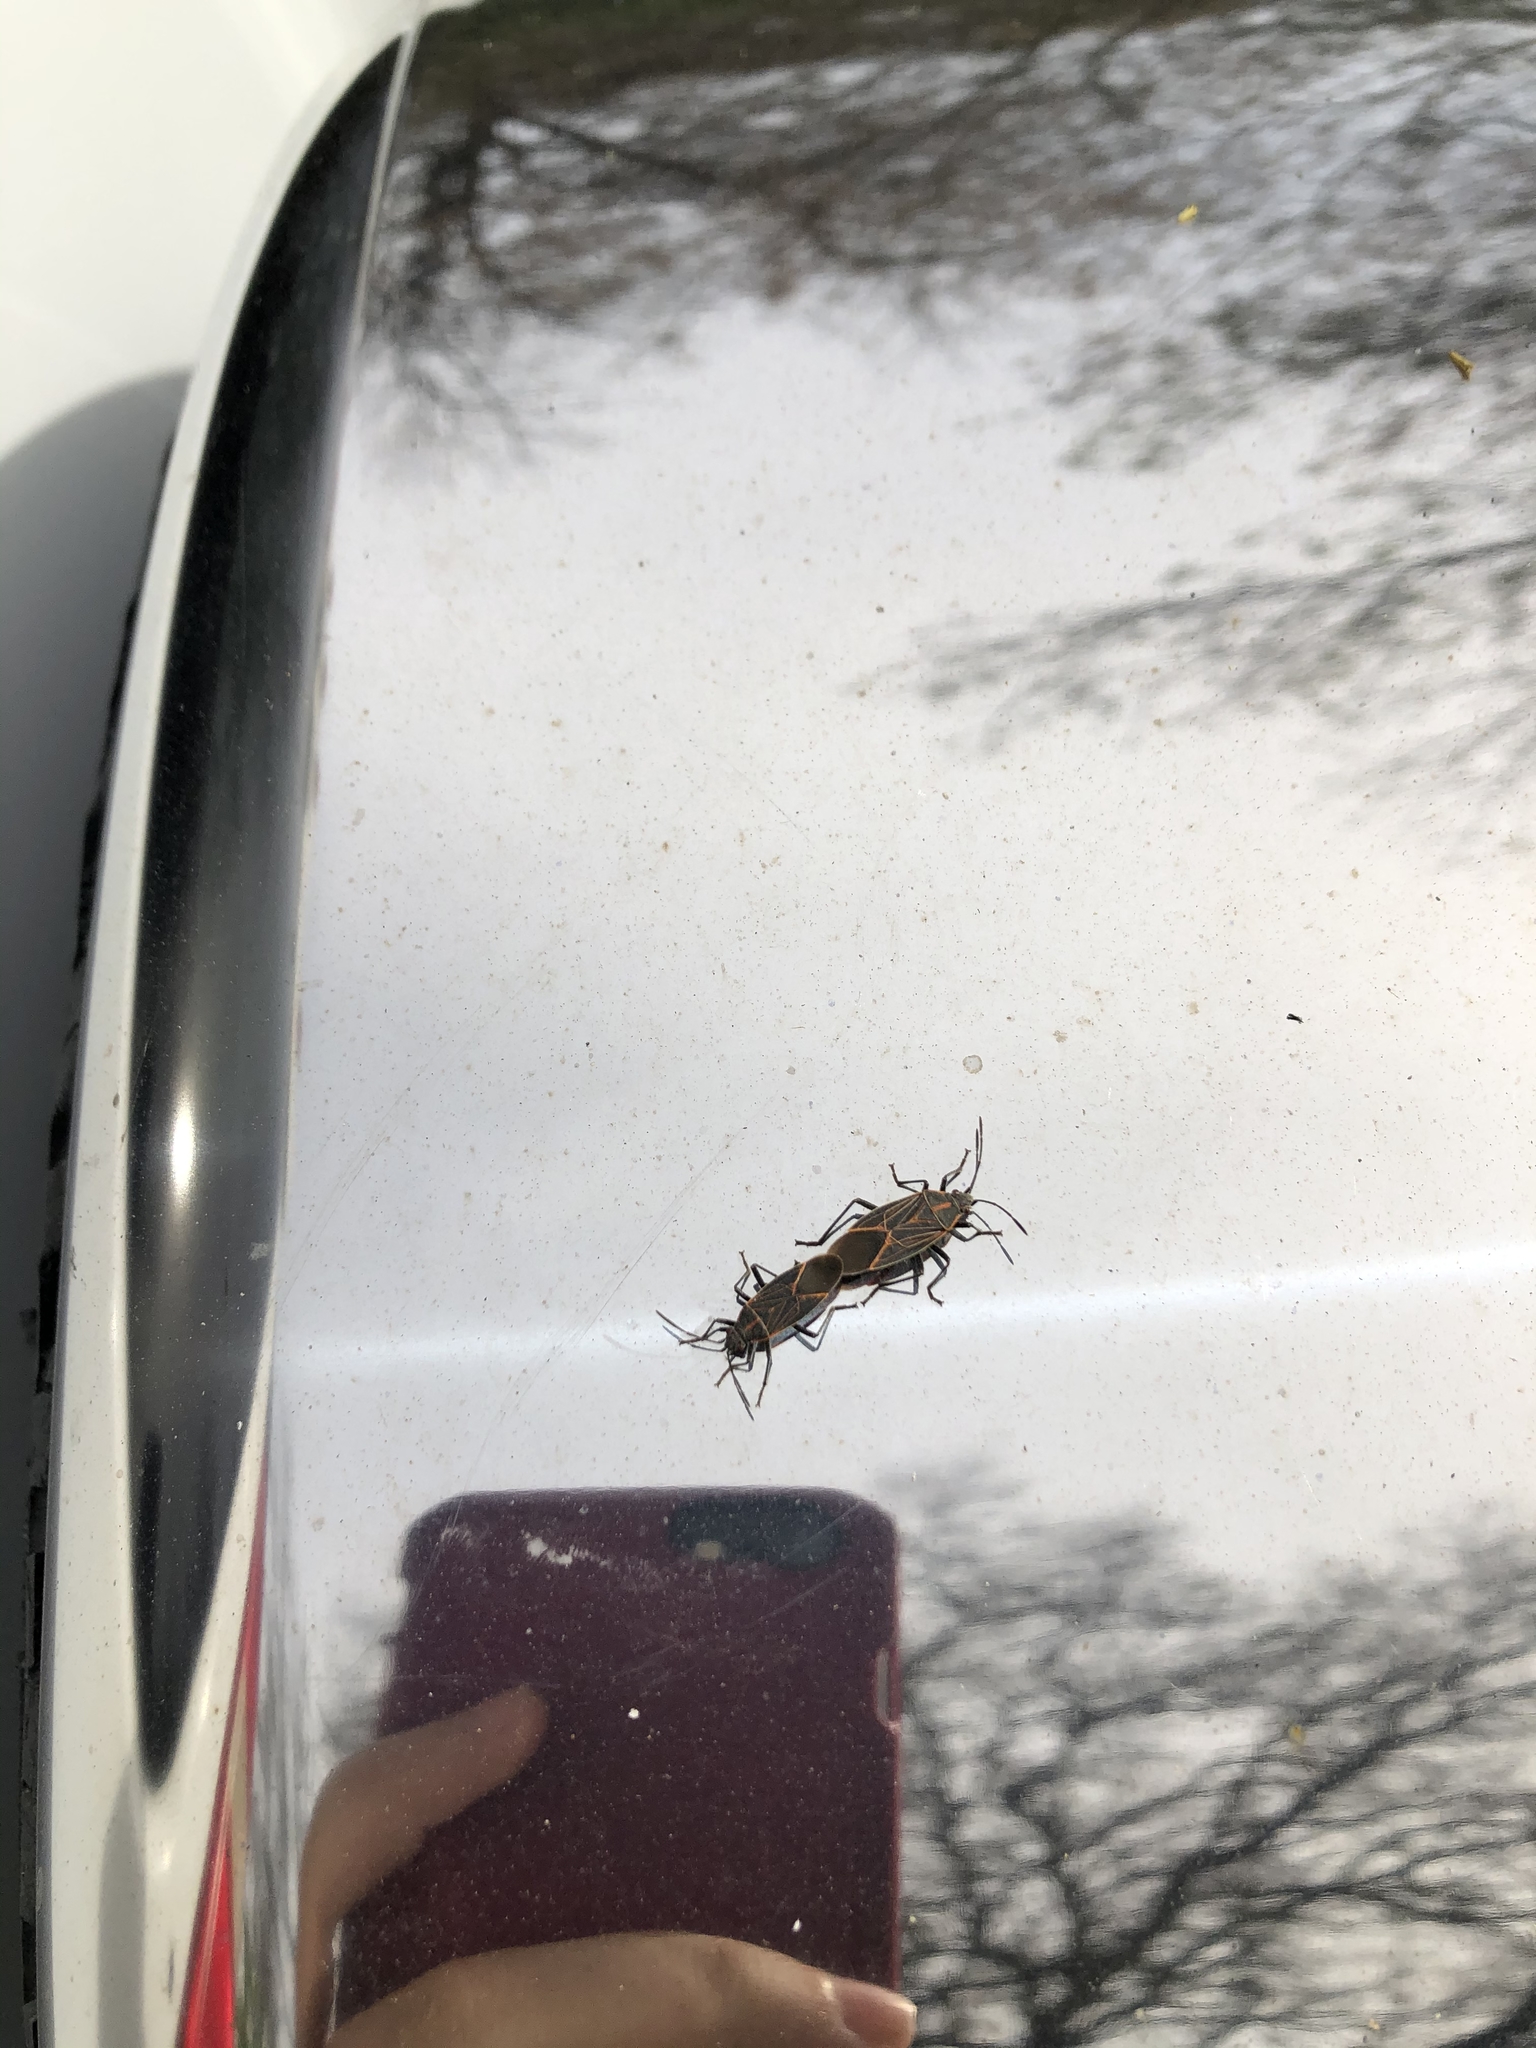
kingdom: Animalia
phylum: Arthropoda
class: Insecta
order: Hemiptera
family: Rhopalidae
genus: Boisea
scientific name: Boisea rubrolineata
